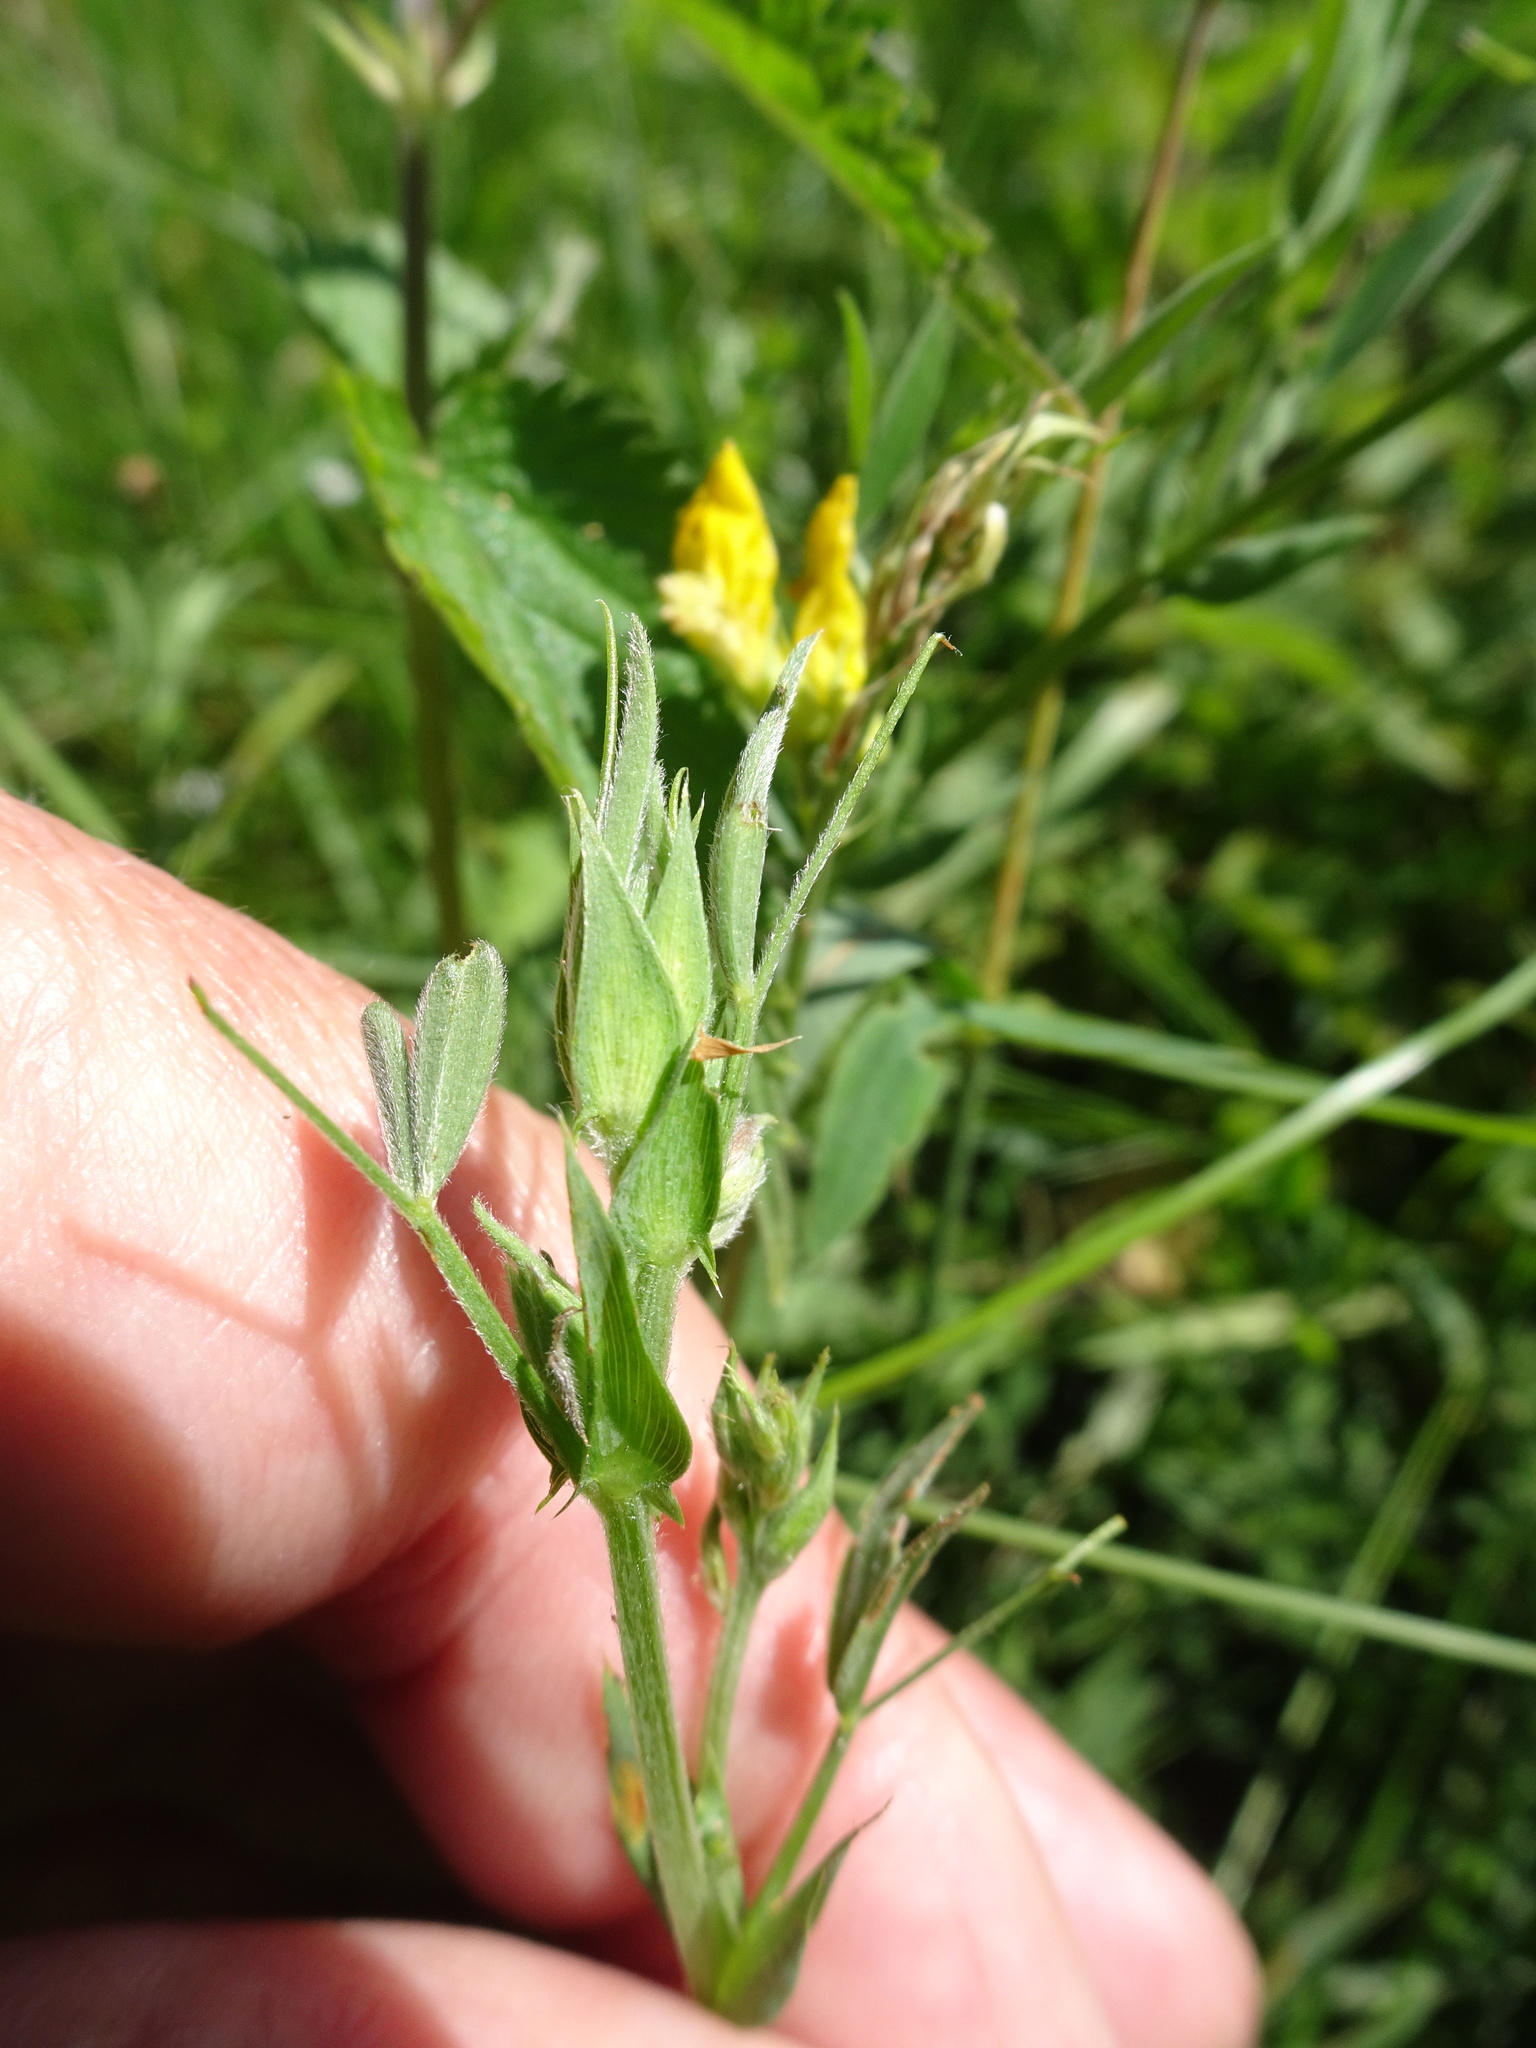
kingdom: Plantae
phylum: Tracheophyta
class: Magnoliopsida
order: Fabales
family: Fabaceae
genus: Lathyrus
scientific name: Lathyrus pratensis
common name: Meadow vetchling
